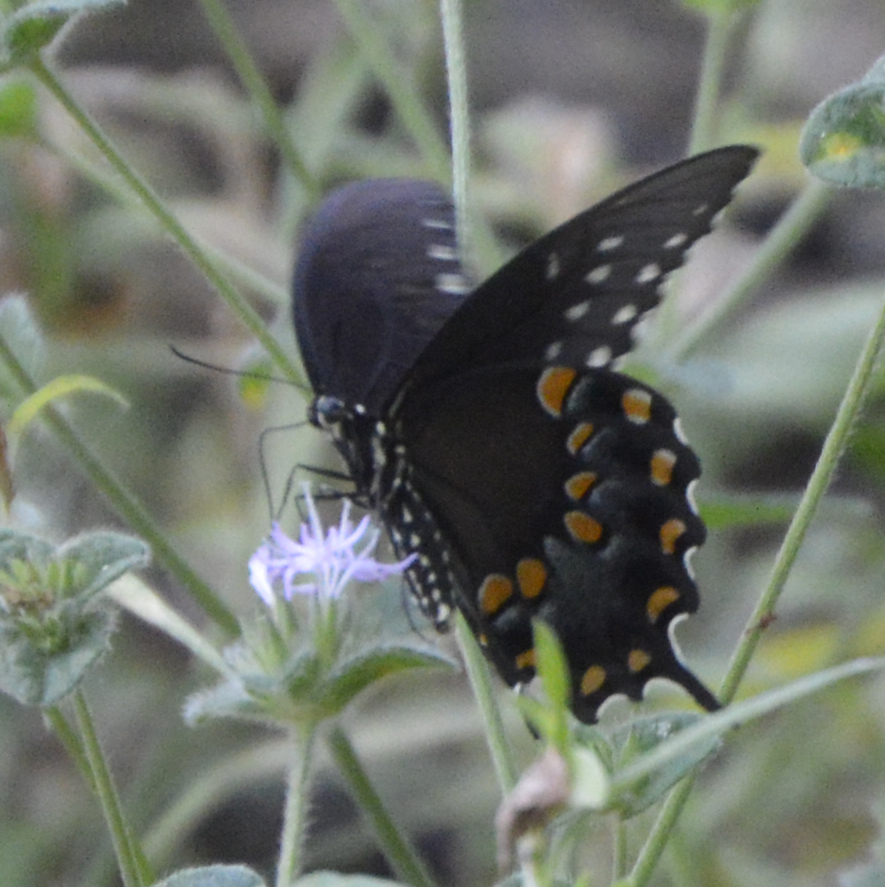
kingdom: Animalia
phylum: Arthropoda
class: Insecta
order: Lepidoptera
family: Papilionidae
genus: Papilio
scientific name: Papilio troilus
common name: Spicebush swallowtail
